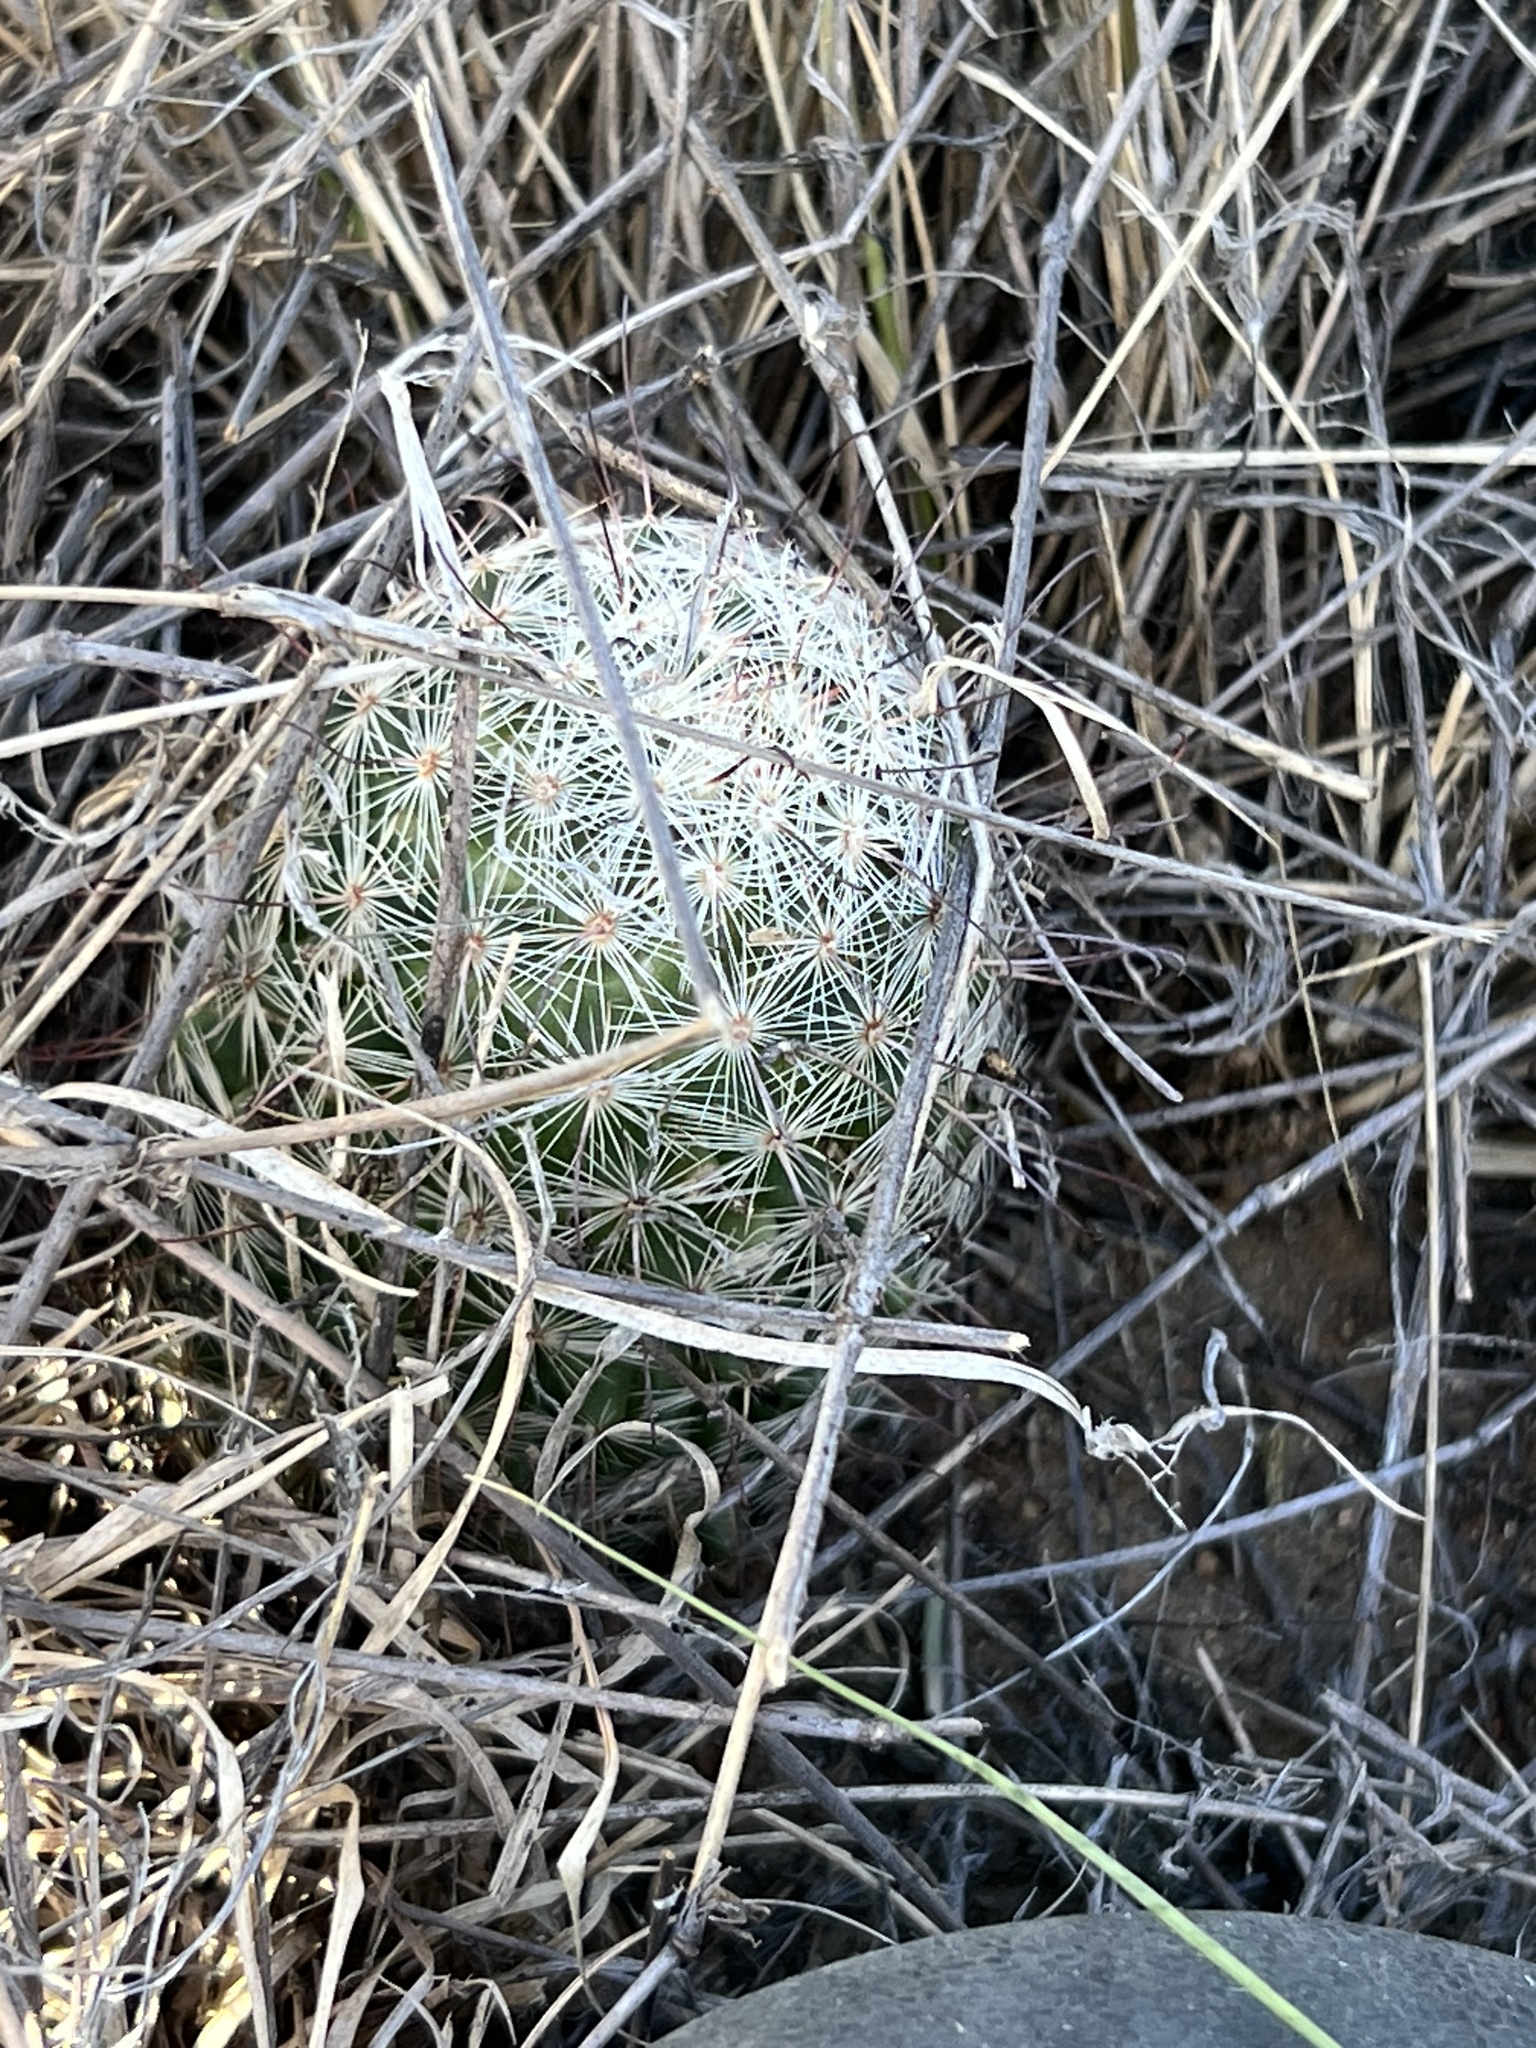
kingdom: Plantae
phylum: Tracheophyta
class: Magnoliopsida
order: Caryophyllales
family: Cactaceae
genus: Cochemiea
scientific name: Cochemiea grahamii
